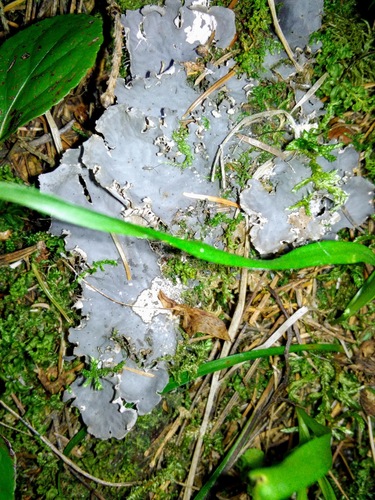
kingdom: Fungi
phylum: Ascomycota
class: Lecanoromycetes
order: Peltigerales
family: Peltigeraceae
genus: Peltigera
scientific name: Peltigera
